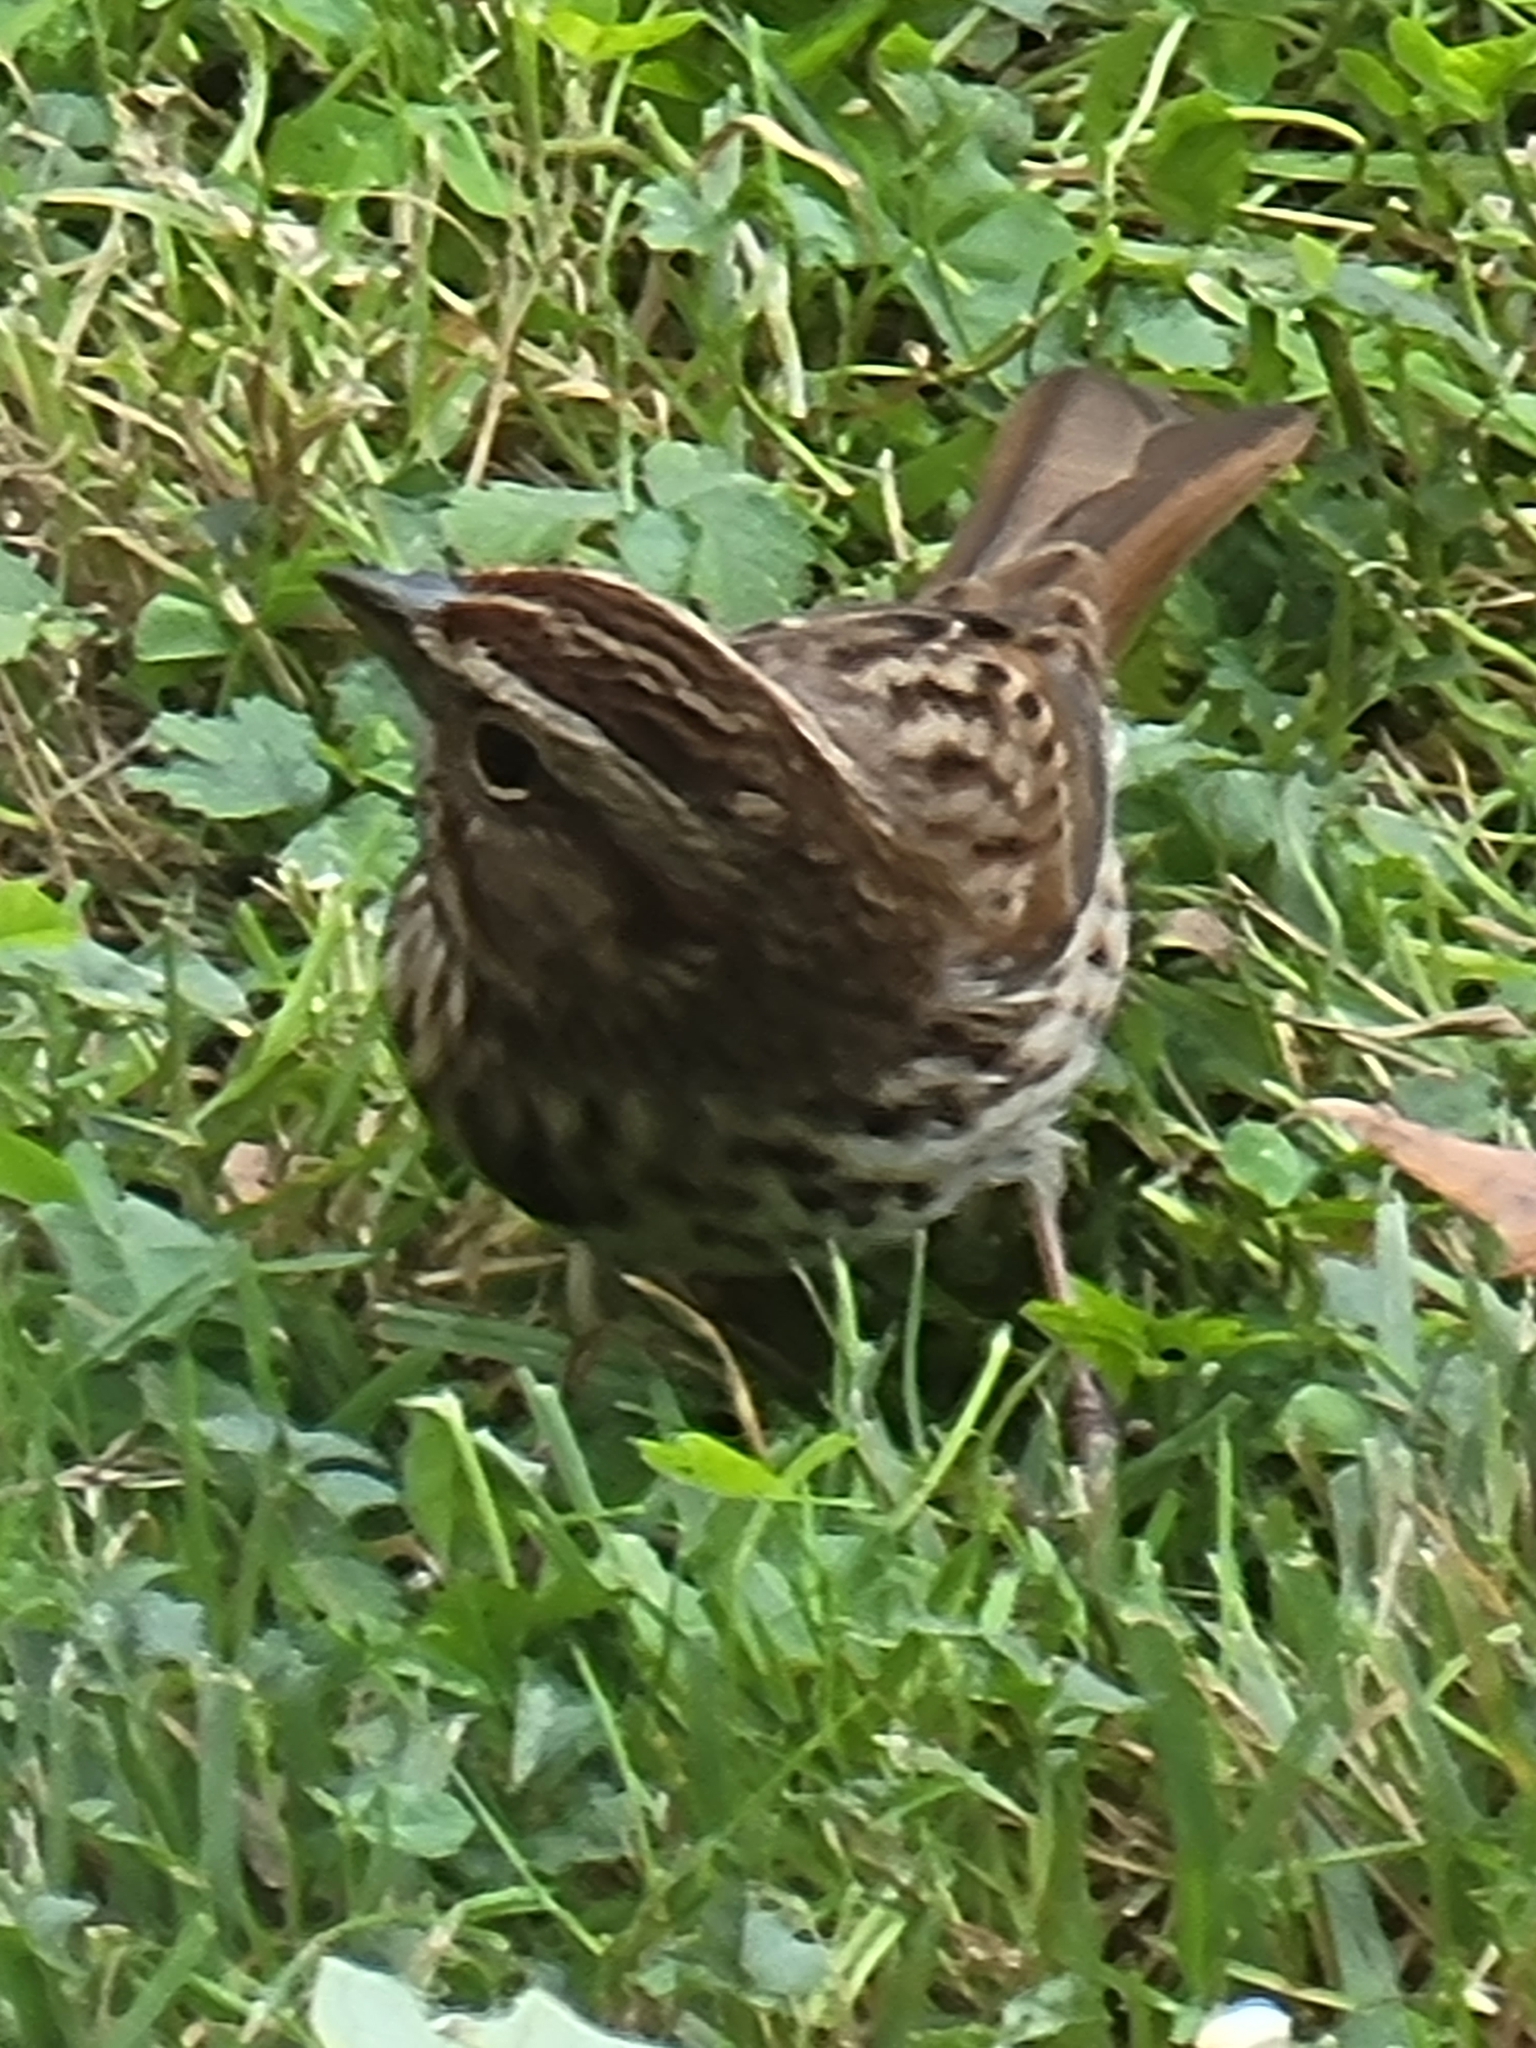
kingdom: Animalia
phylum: Chordata
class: Aves
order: Passeriformes
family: Passerellidae
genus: Melospiza
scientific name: Melospiza melodia
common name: Song sparrow
